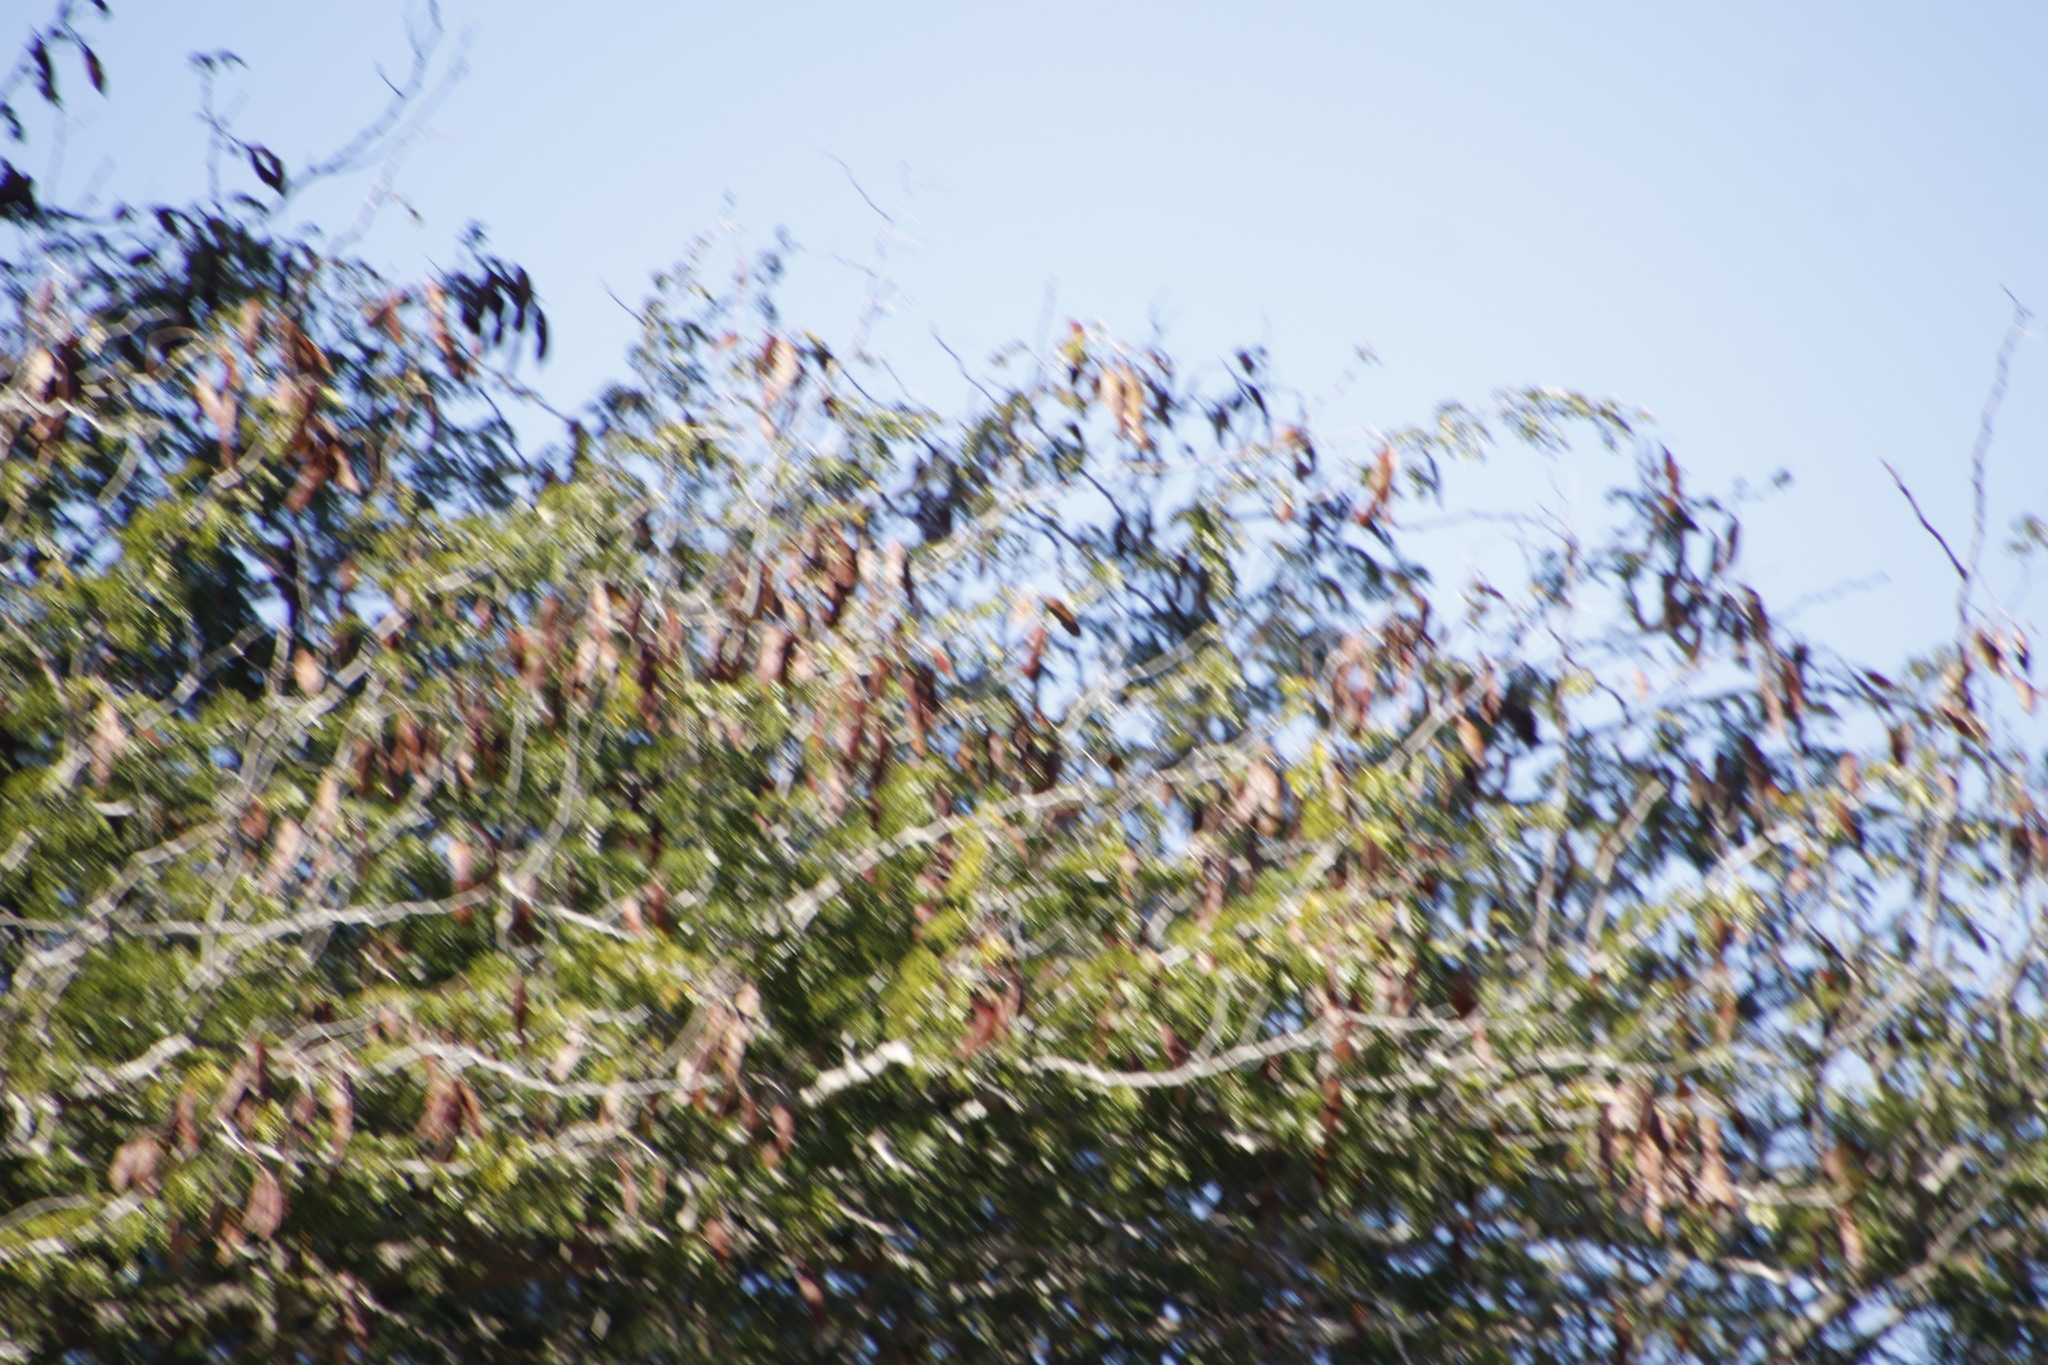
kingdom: Plantae
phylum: Tracheophyta
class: Magnoliopsida
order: Fabales
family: Fabaceae
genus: Senegalia
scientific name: Senegalia nigrescens
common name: Knobthorn
